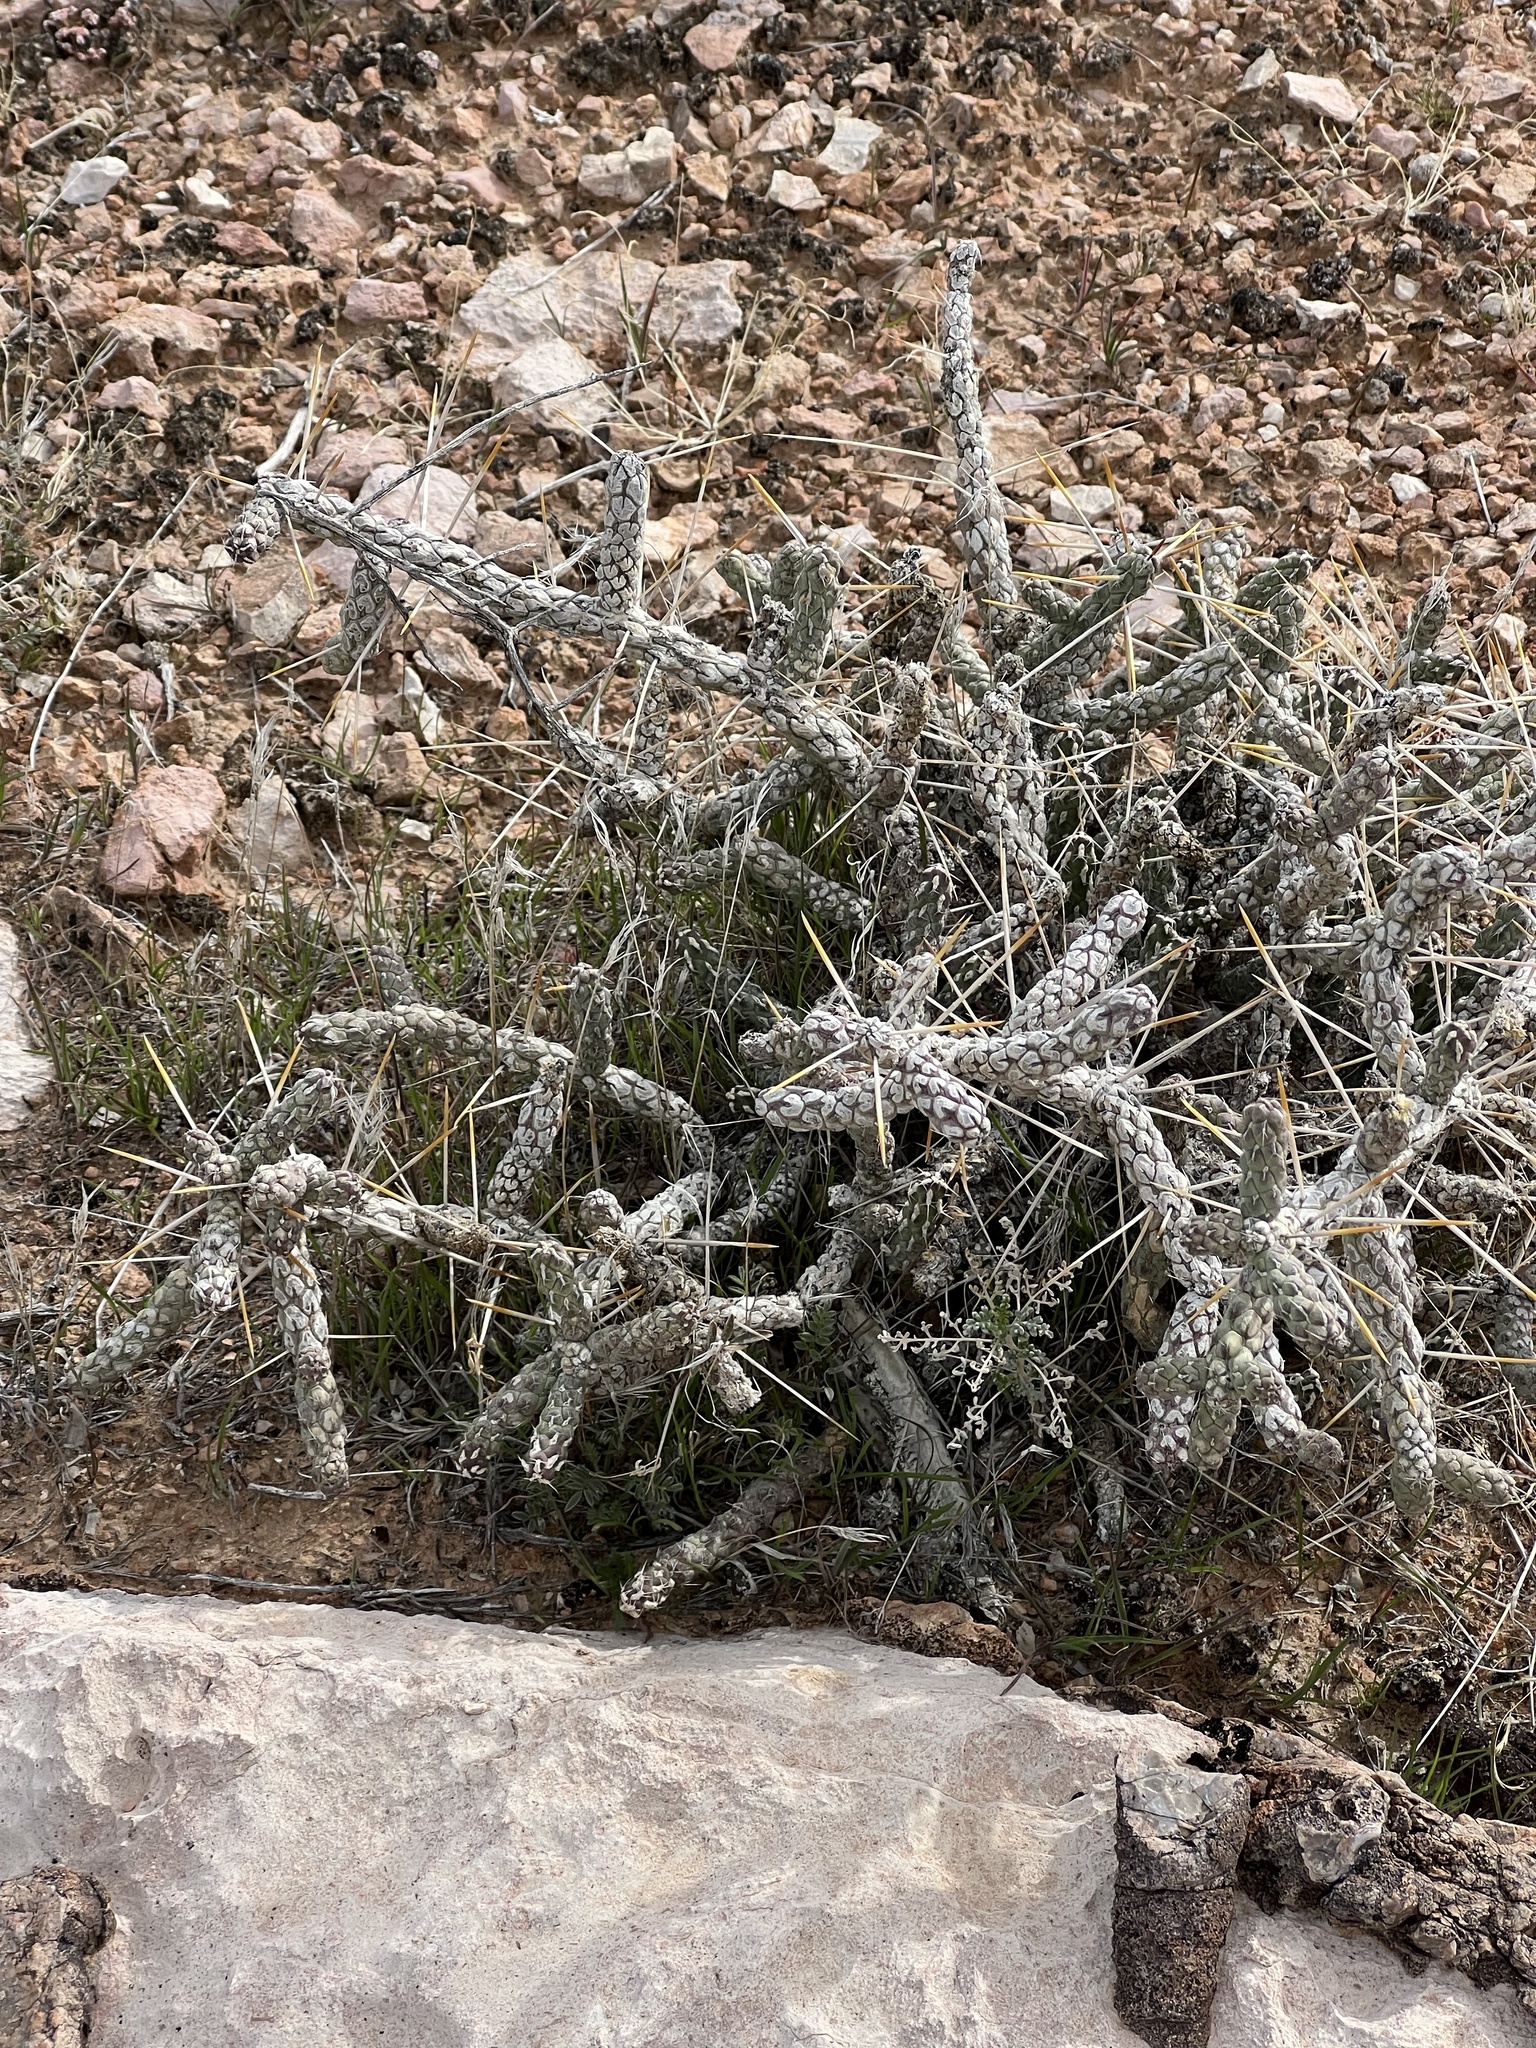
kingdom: Plantae
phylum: Tracheophyta
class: Magnoliopsida
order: Caryophyllales
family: Cactaceae
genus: Cylindropuntia
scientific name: Cylindropuntia ramosissima
